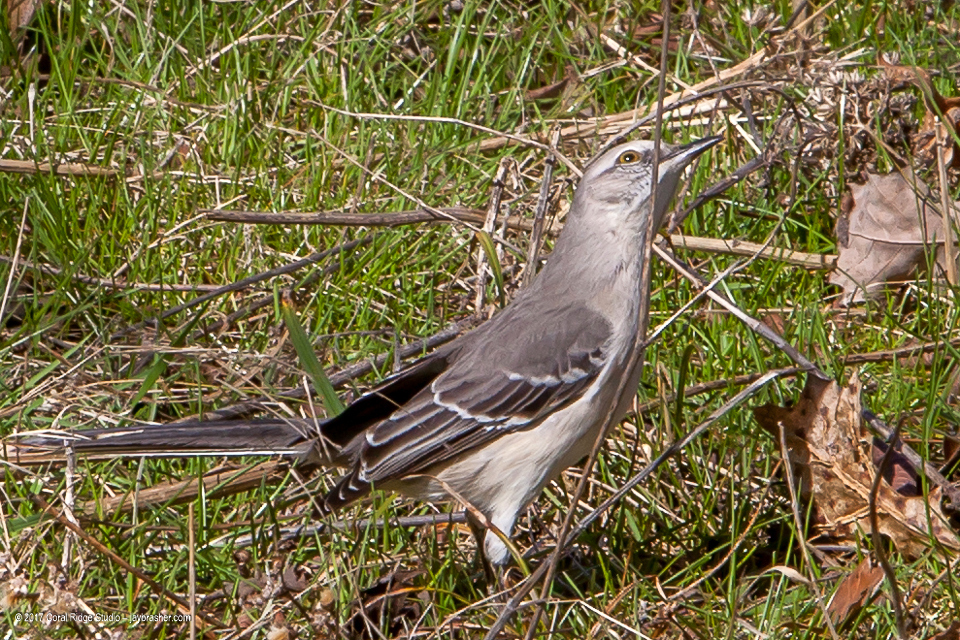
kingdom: Animalia
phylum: Chordata
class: Aves
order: Passeriformes
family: Mimidae
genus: Mimus
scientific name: Mimus polyglottos
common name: Northern mockingbird
